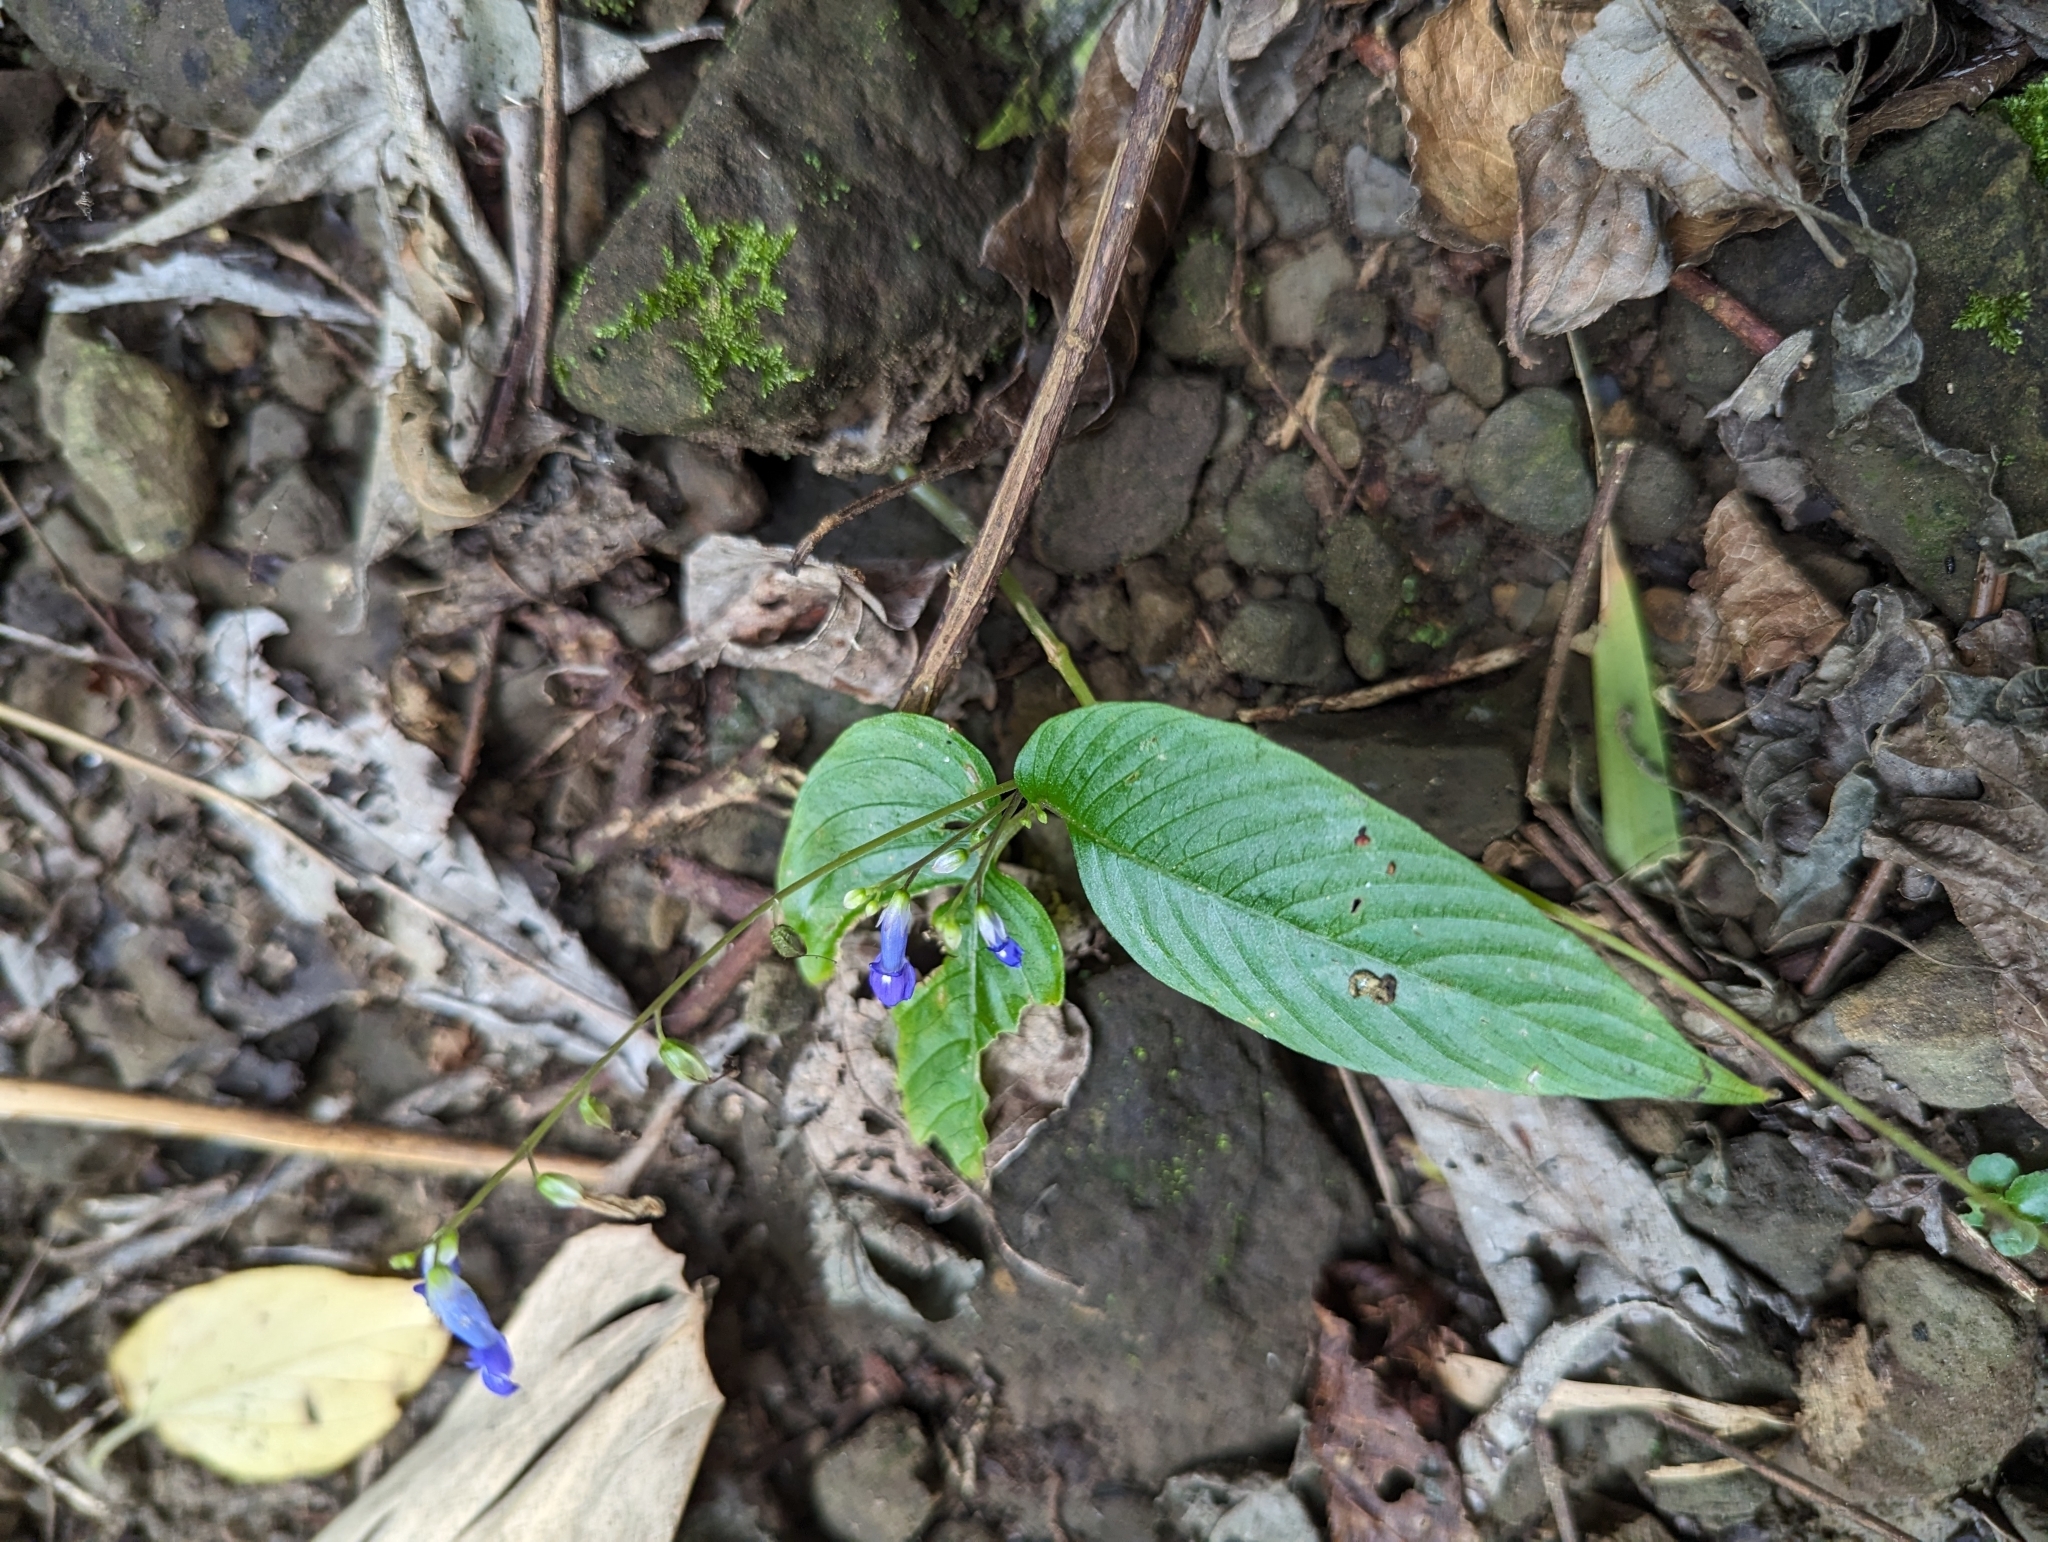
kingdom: Plantae
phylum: Tracheophyta
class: Magnoliopsida
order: Lamiales
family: Gesneriaceae
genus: Rhynchoglossum
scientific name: Rhynchoglossum obliquum
